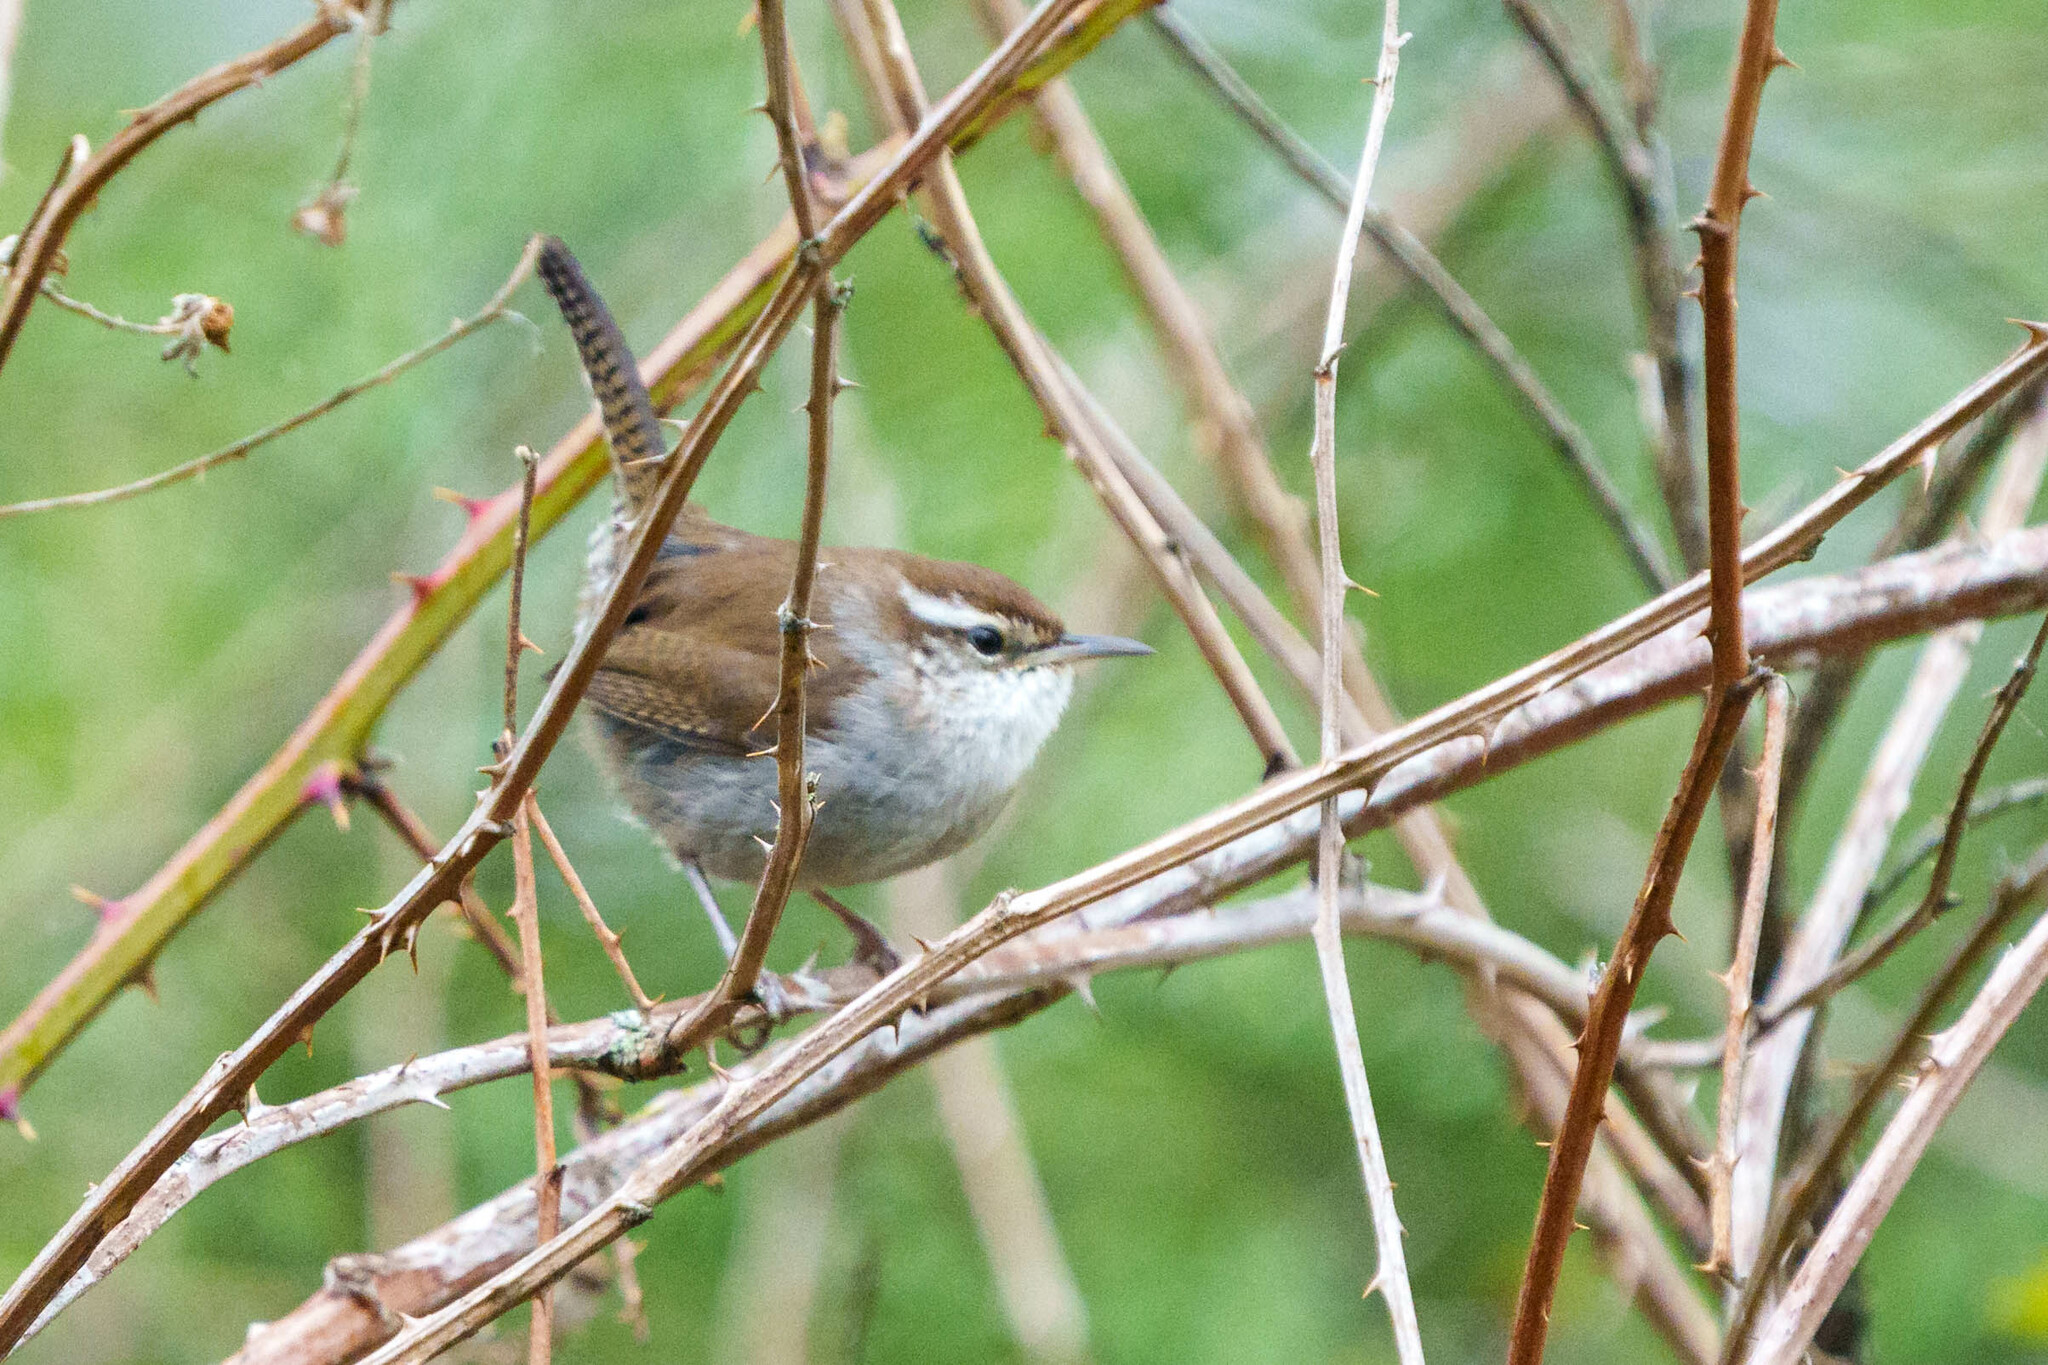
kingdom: Animalia
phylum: Chordata
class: Aves
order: Passeriformes
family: Troglodytidae
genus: Thryomanes
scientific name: Thryomanes bewickii
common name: Bewick's wren
